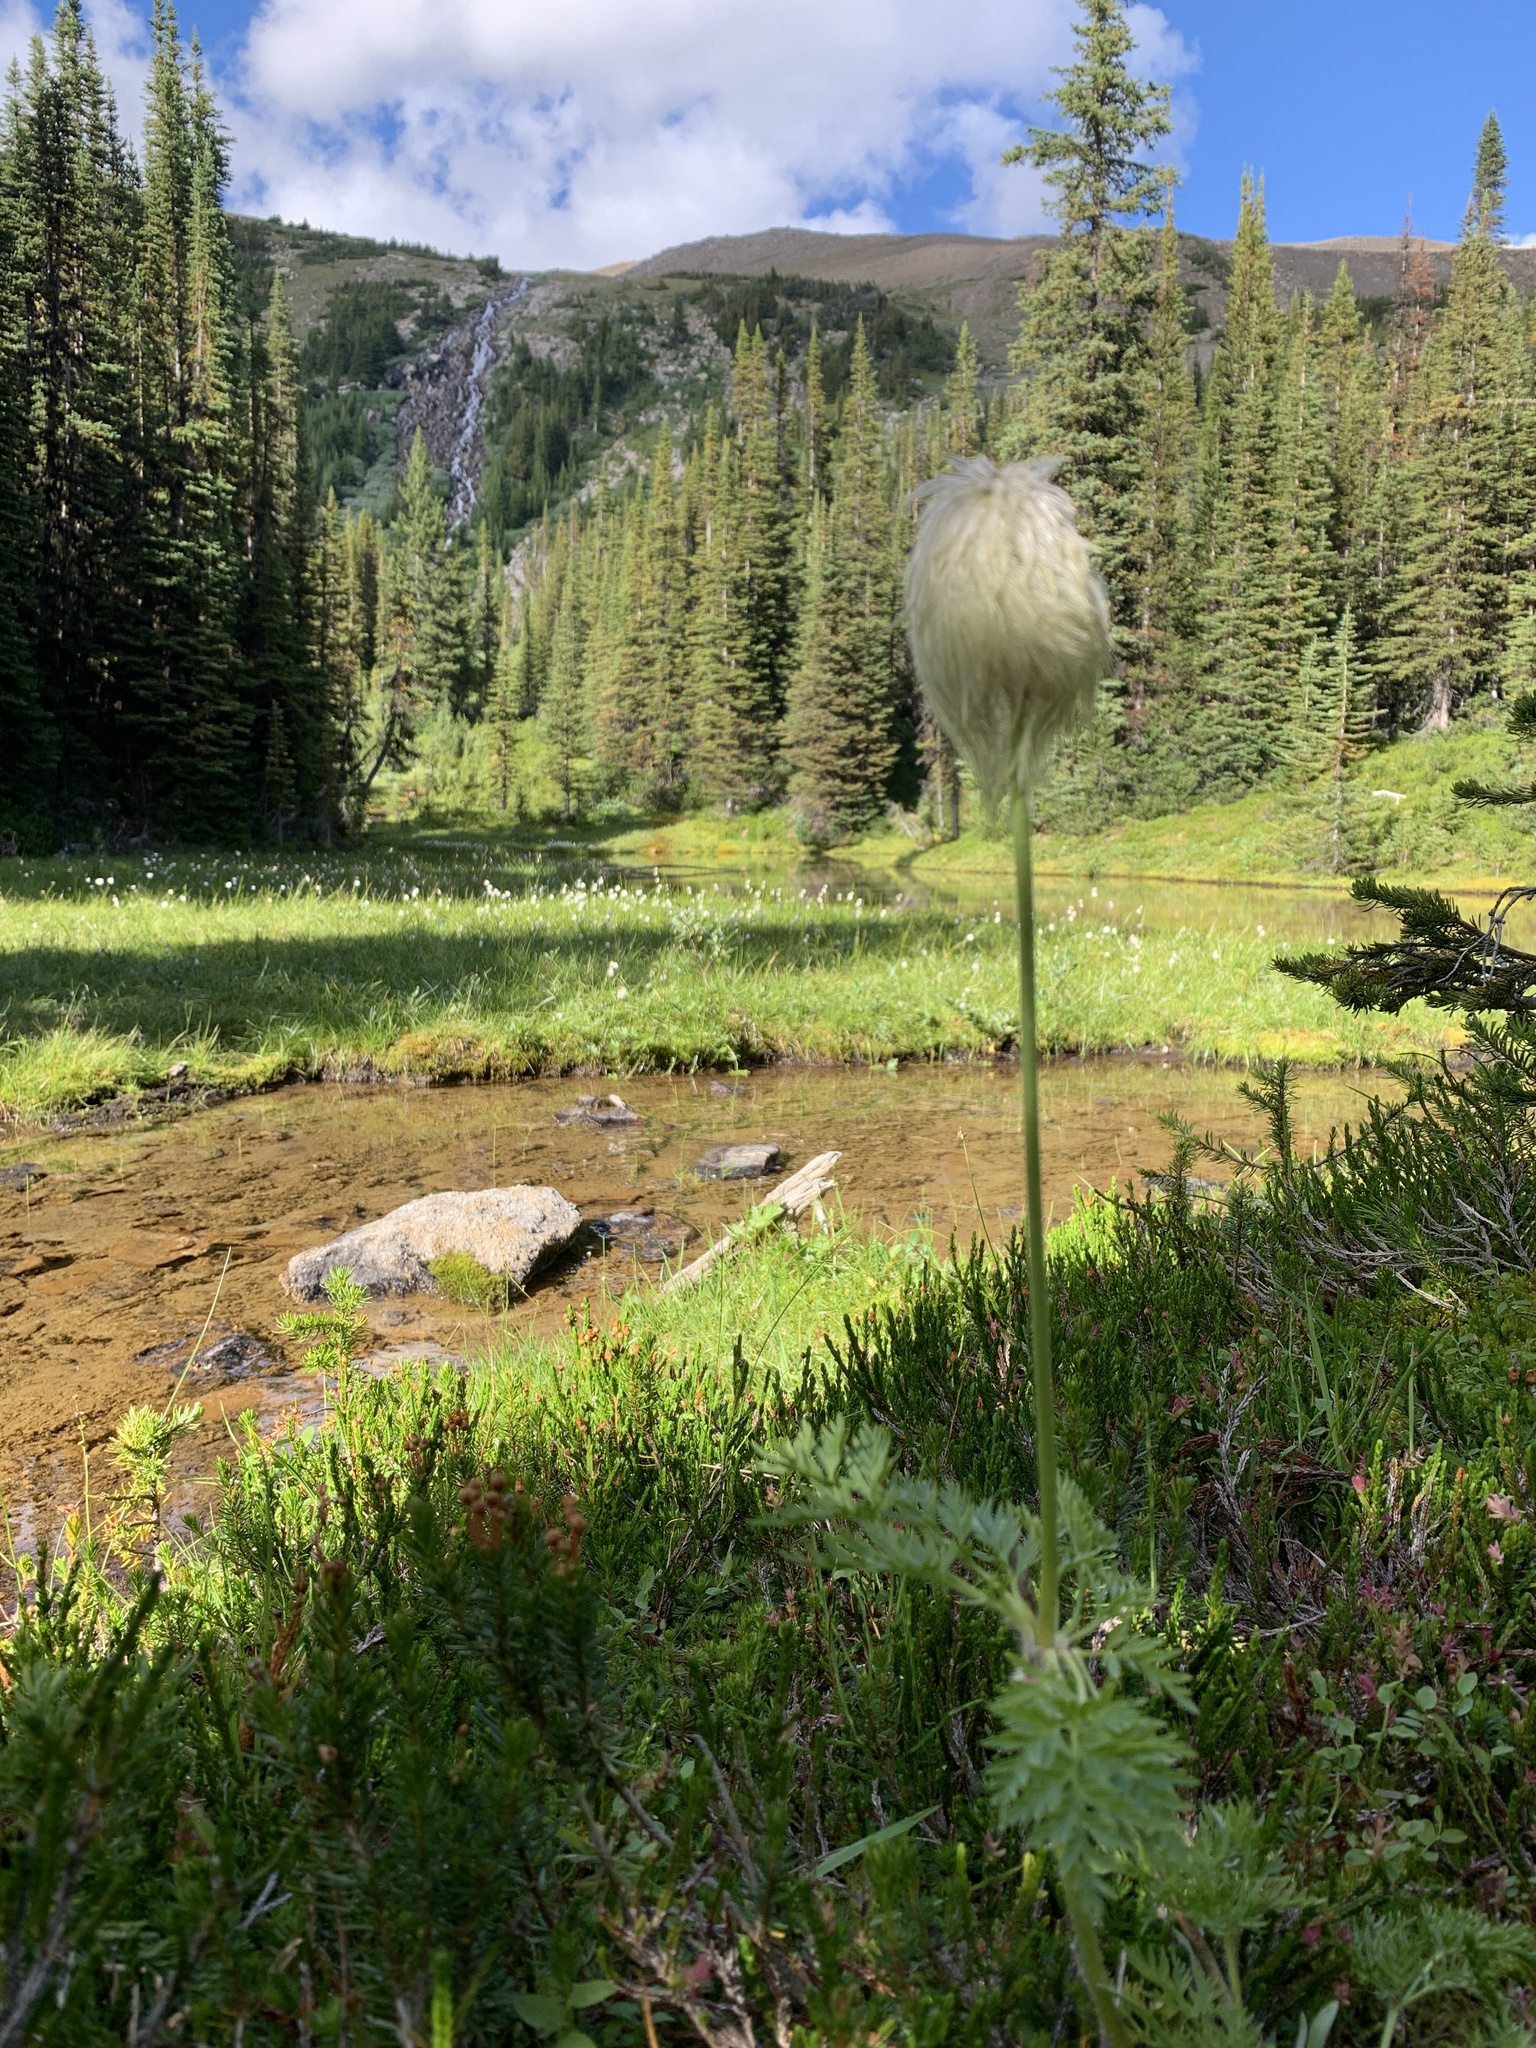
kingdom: Plantae
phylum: Tracheophyta
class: Magnoliopsida
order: Ranunculales
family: Ranunculaceae
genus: Pulsatilla
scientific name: Pulsatilla occidentalis
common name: Mountain pasqueflower
